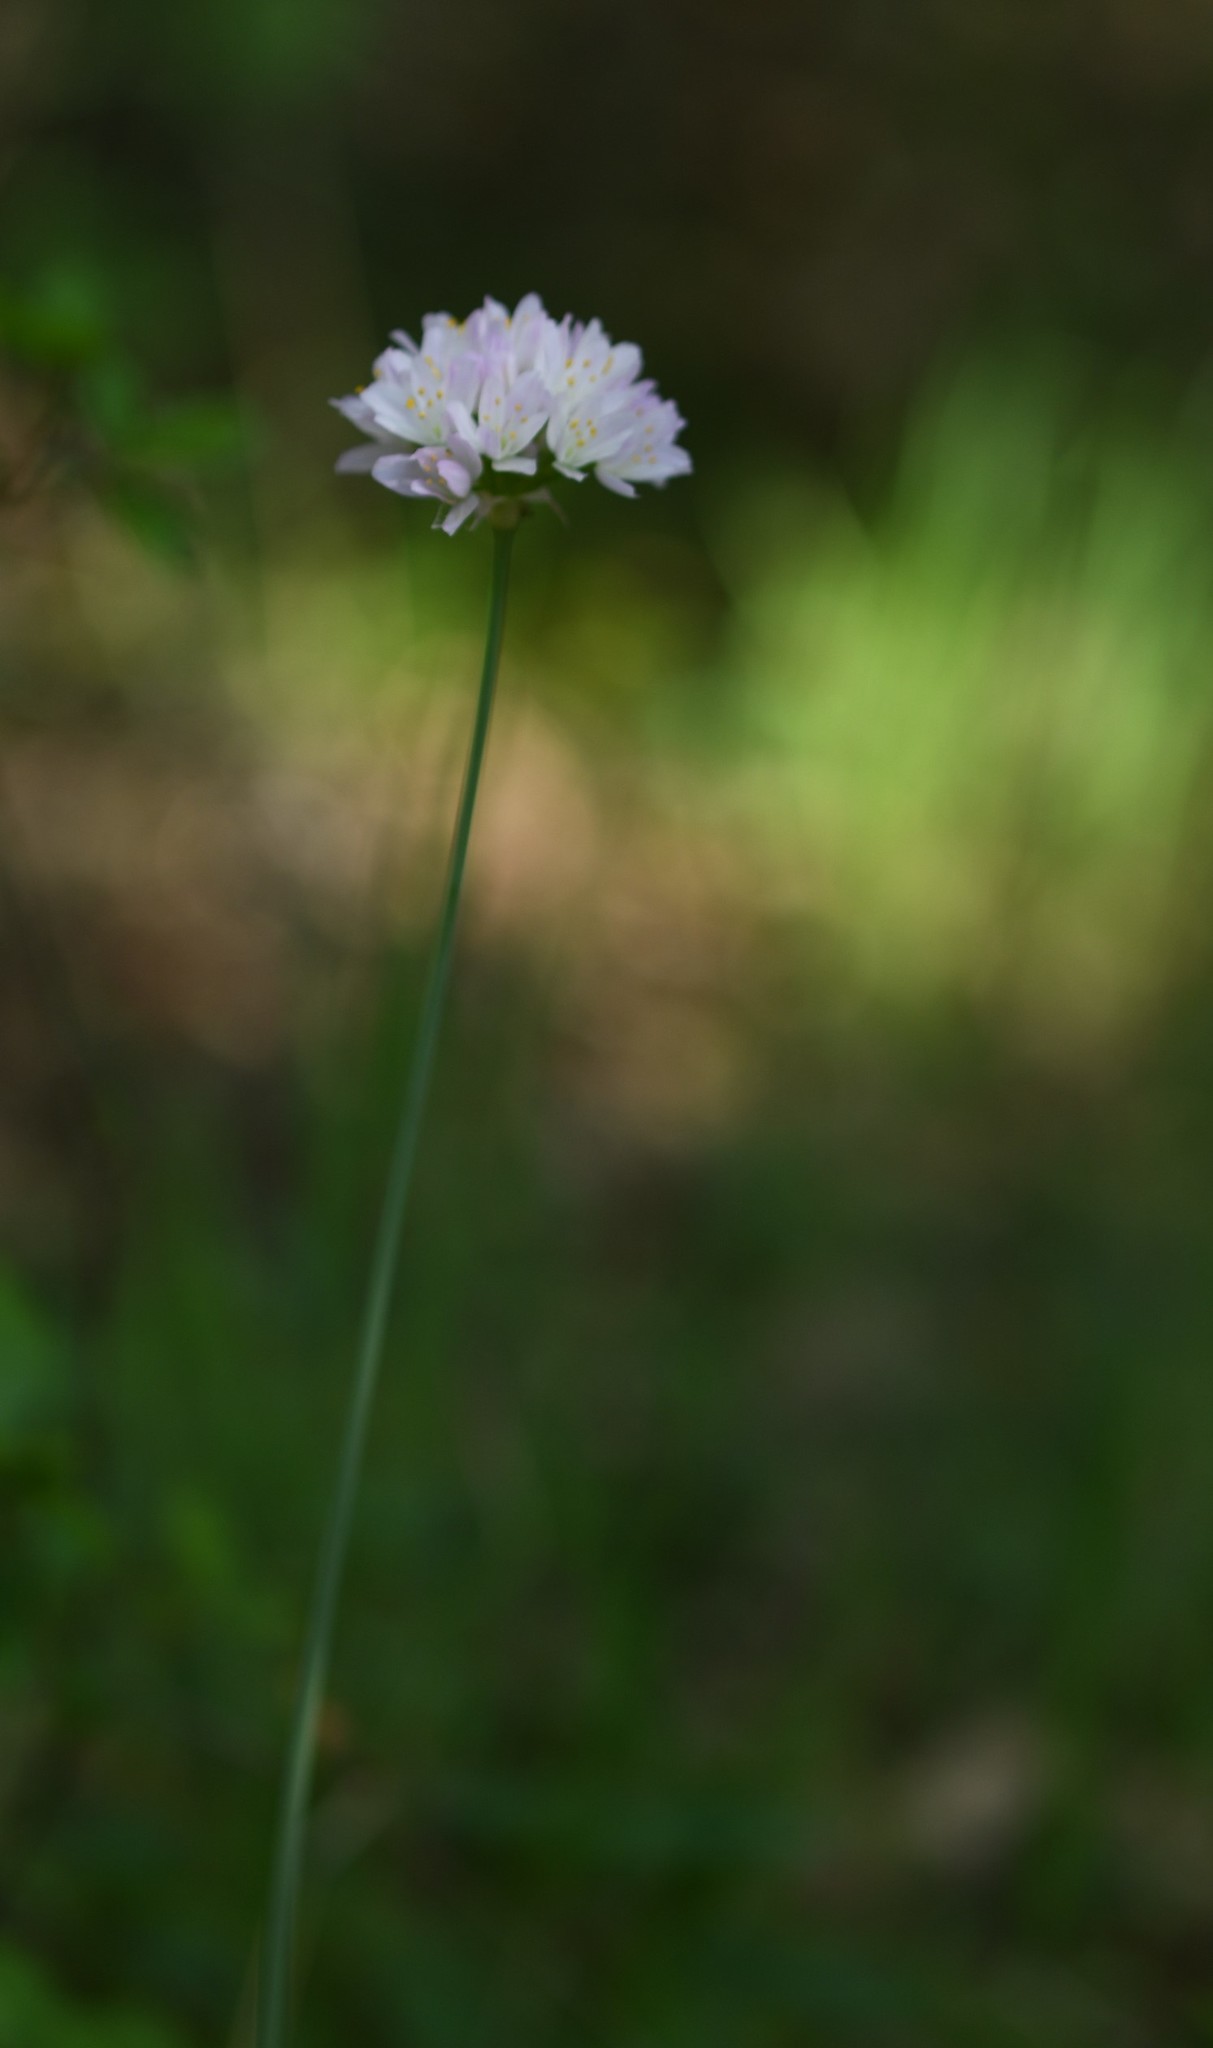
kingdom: Plantae
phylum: Tracheophyta
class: Liliopsida
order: Asparagales
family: Amaryllidaceae
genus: Allium
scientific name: Allium roseum
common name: Rosy garlic
